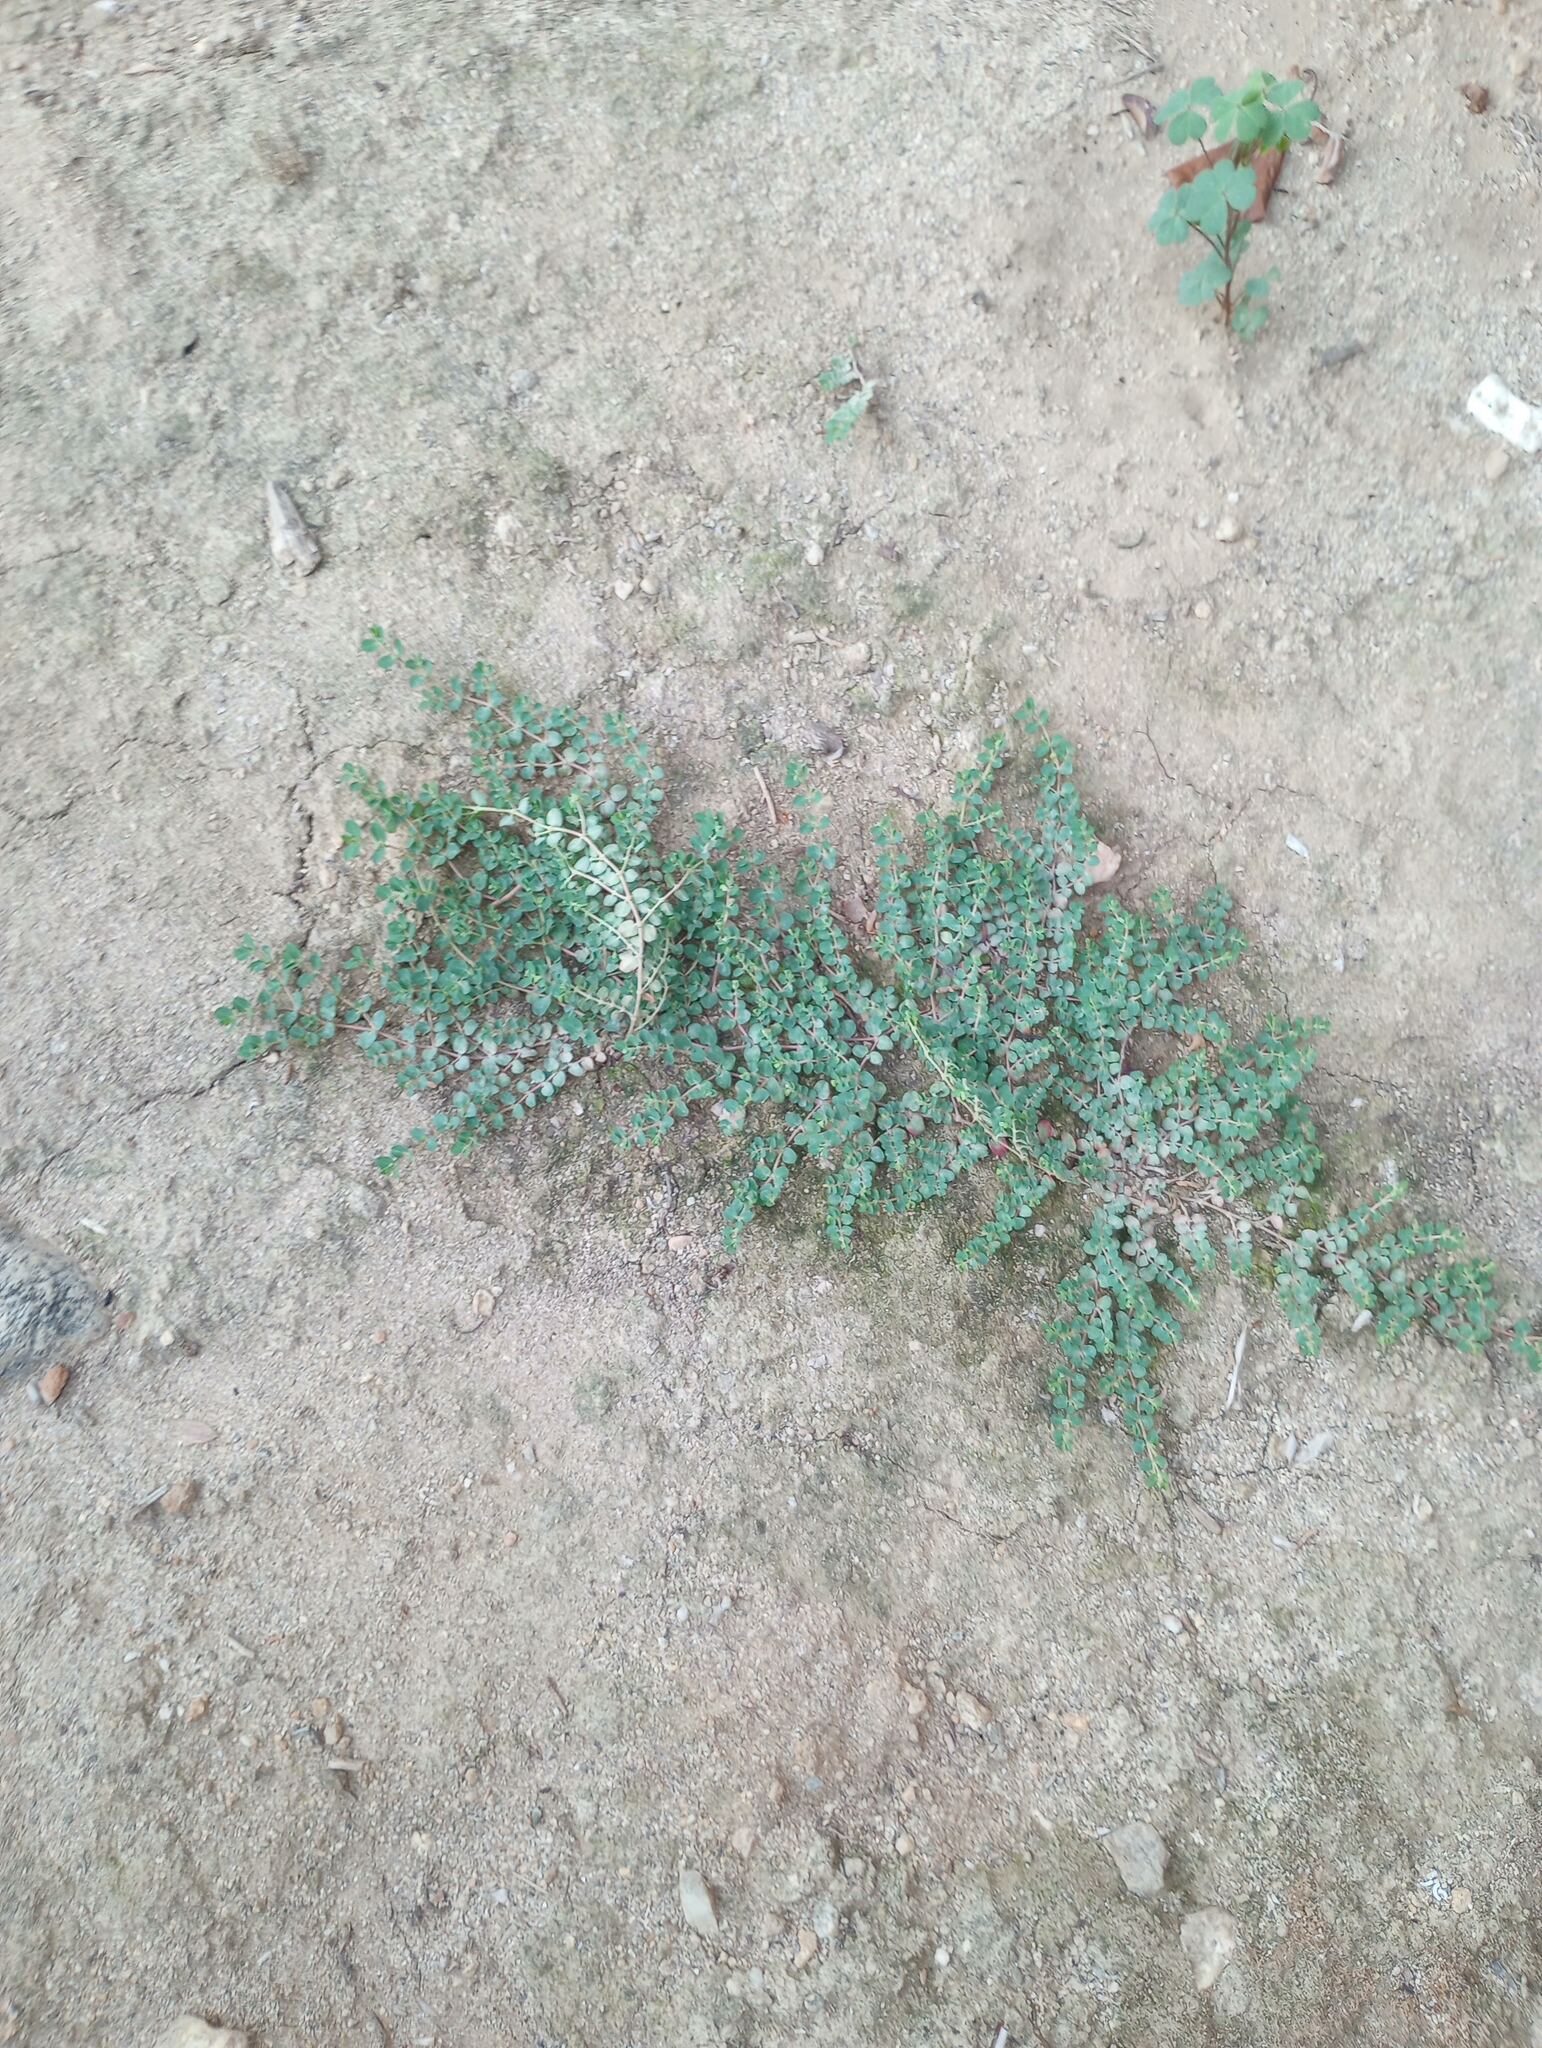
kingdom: Plantae
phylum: Tracheophyta
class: Magnoliopsida
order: Malpighiales
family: Euphorbiaceae
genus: Euphorbia
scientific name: Euphorbia serpens
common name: Matted sandmat
